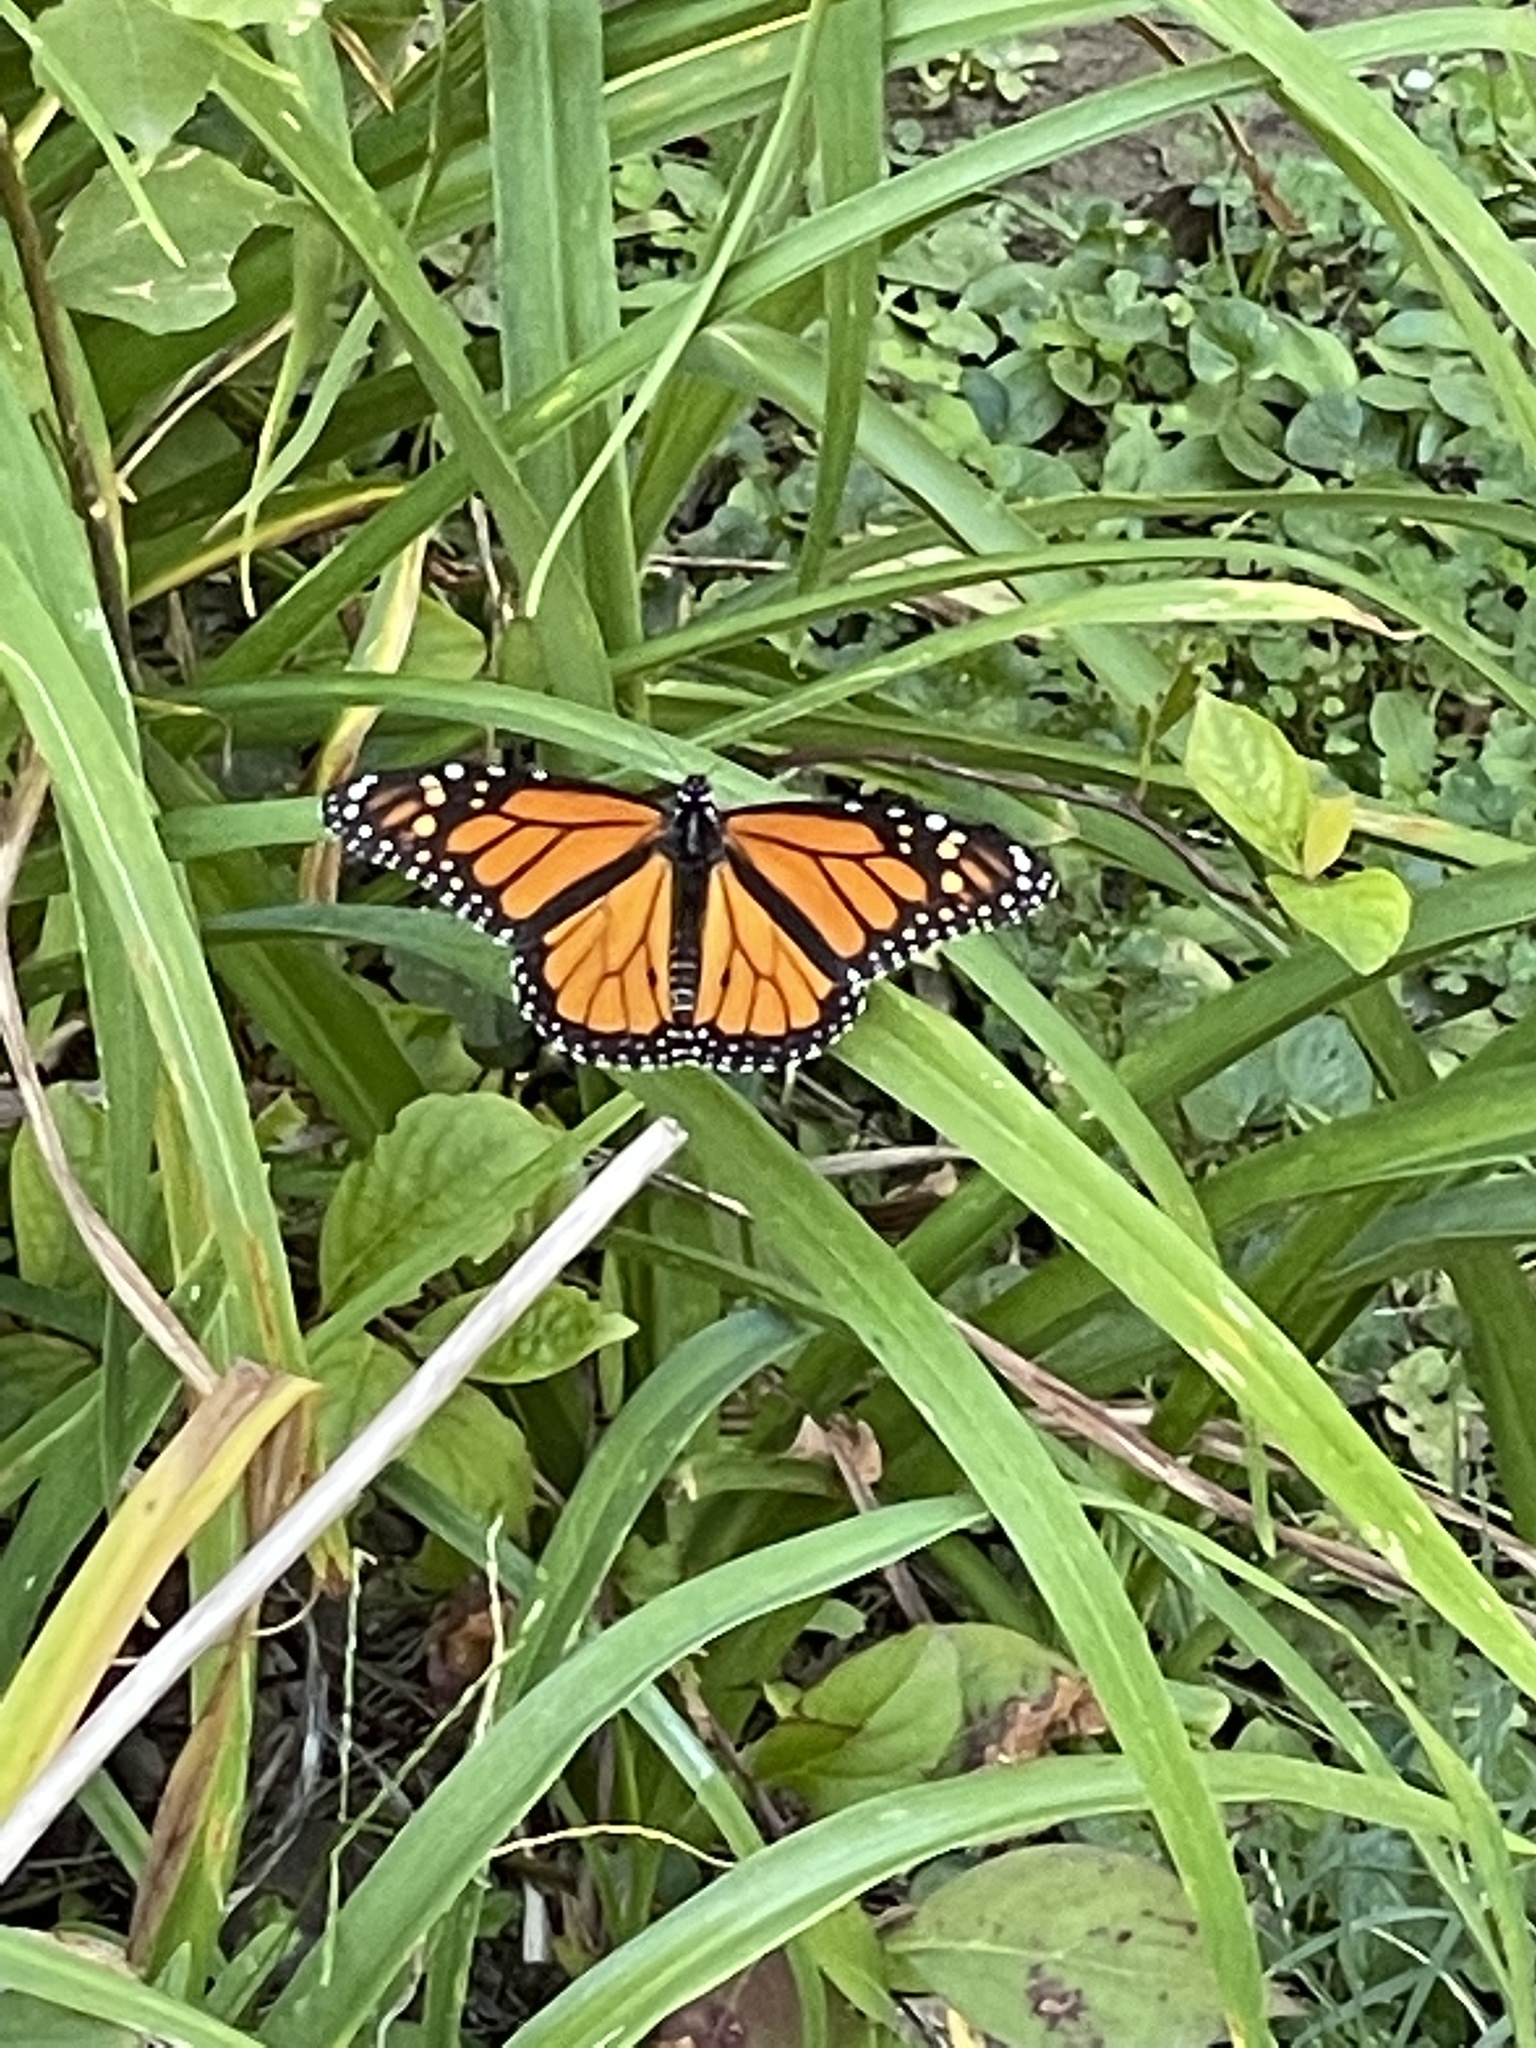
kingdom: Animalia
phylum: Arthropoda
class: Insecta
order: Lepidoptera
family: Nymphalidae
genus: Danaus
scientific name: Danaus plexippus
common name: Monarch
